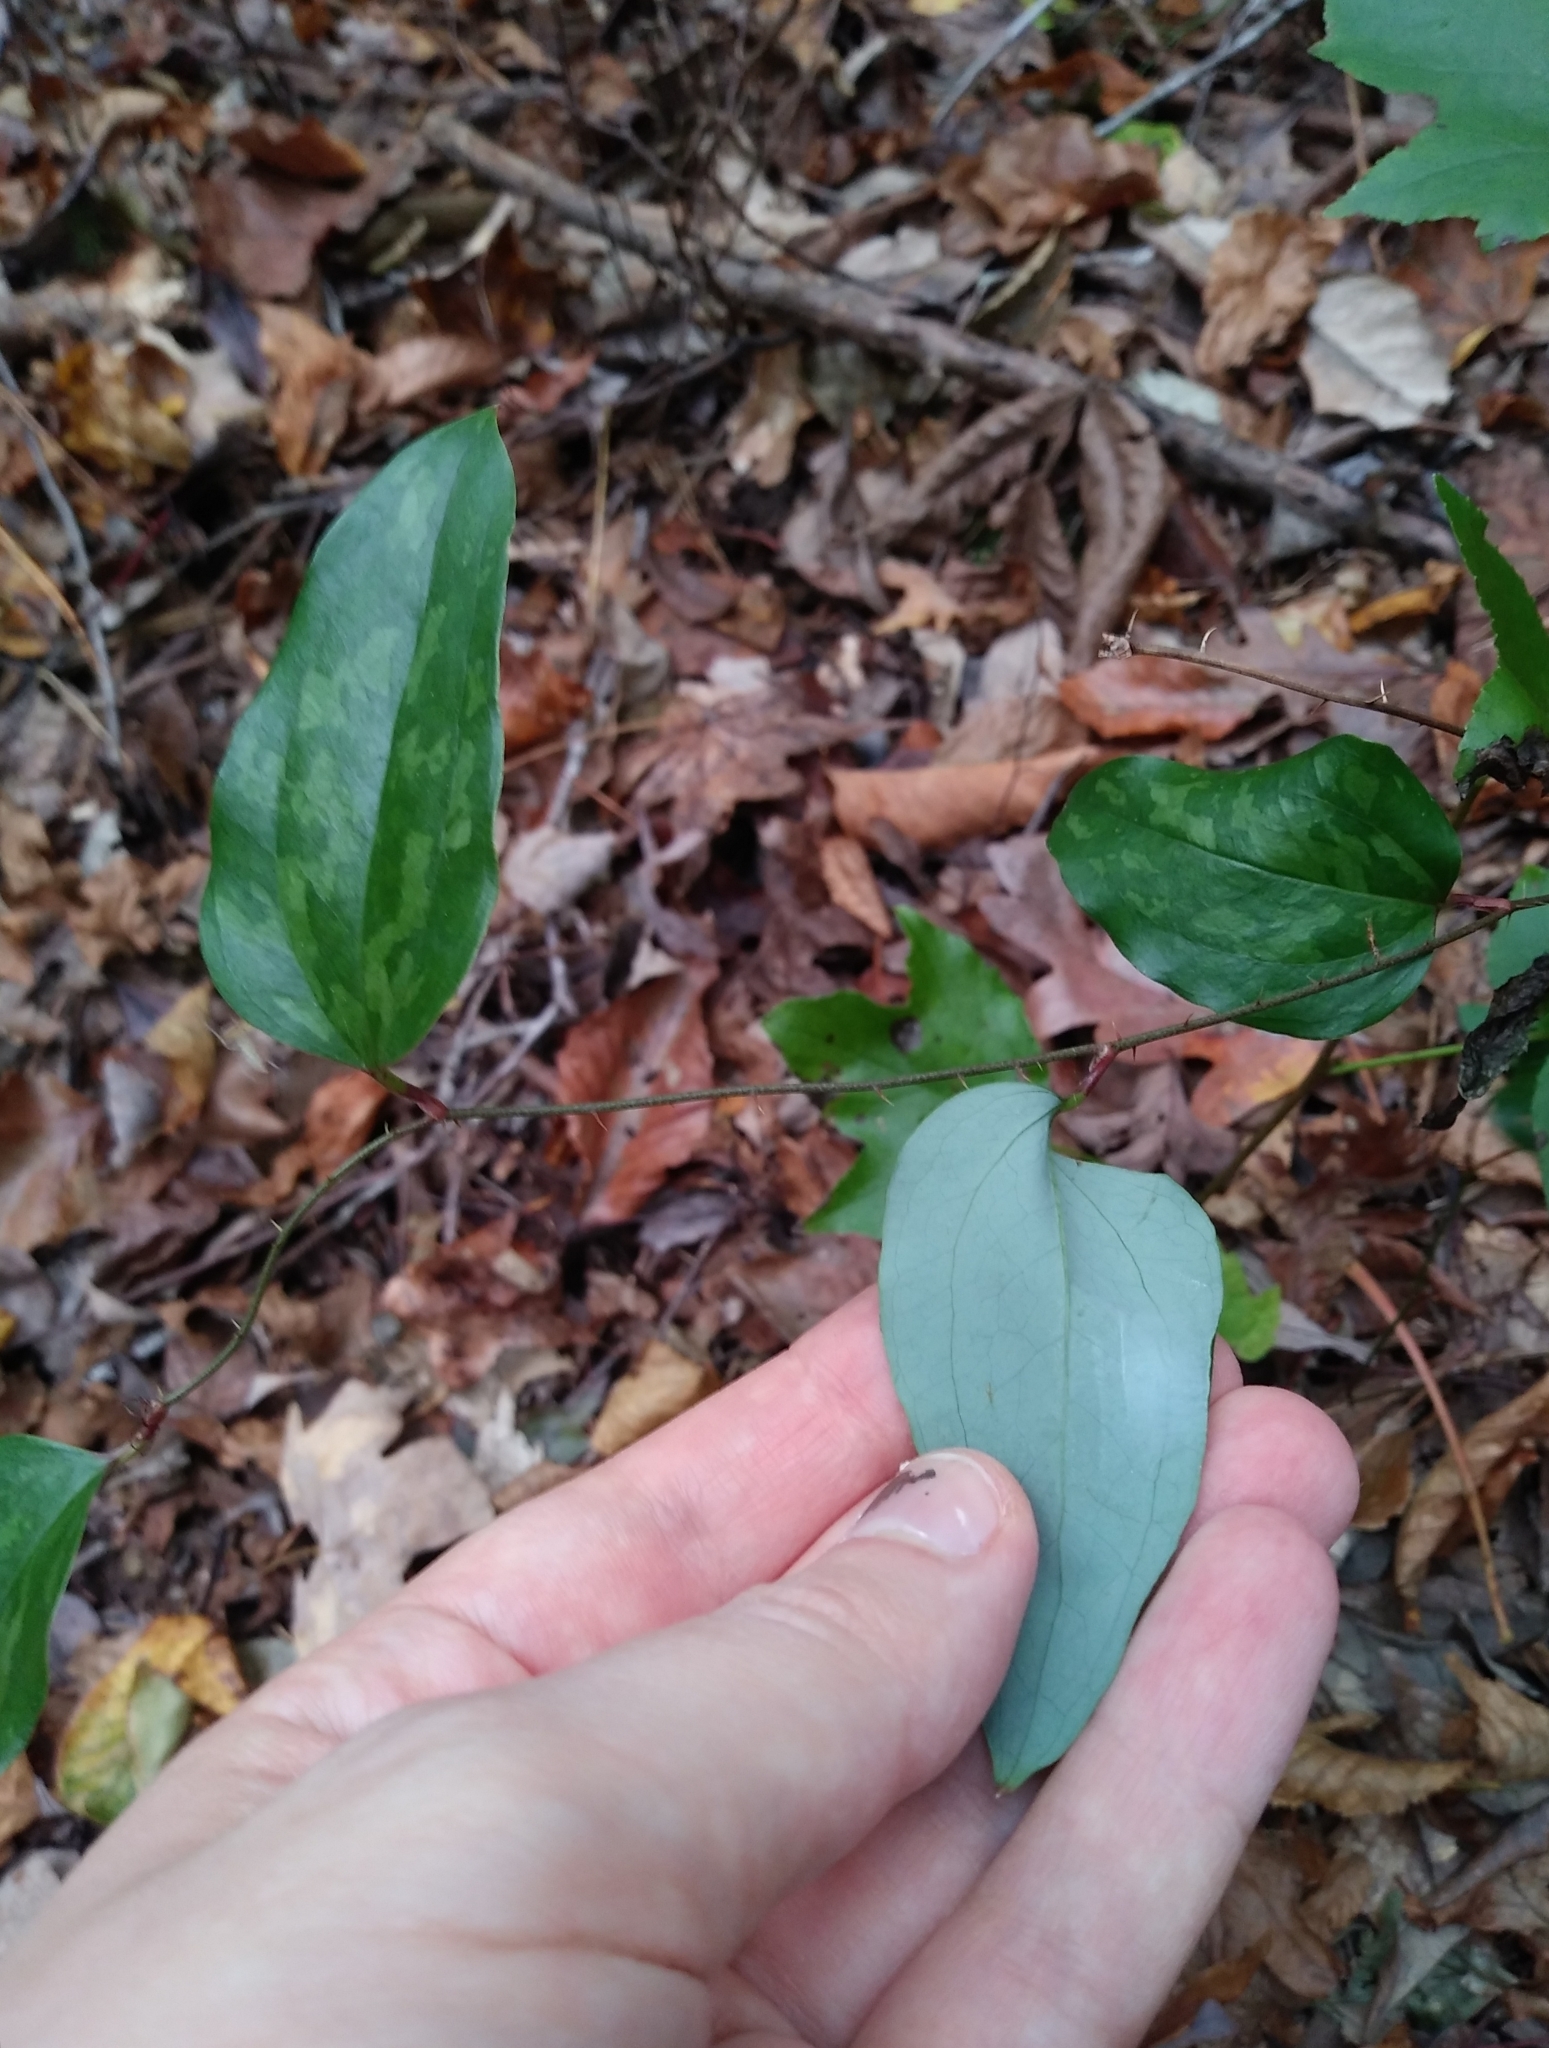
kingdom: Plantae
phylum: Tracheophyta
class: Liliopsida
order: Liliales
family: Smilacaceae
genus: Smilax
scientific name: Smilax glauca
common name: Cat greenbrier
